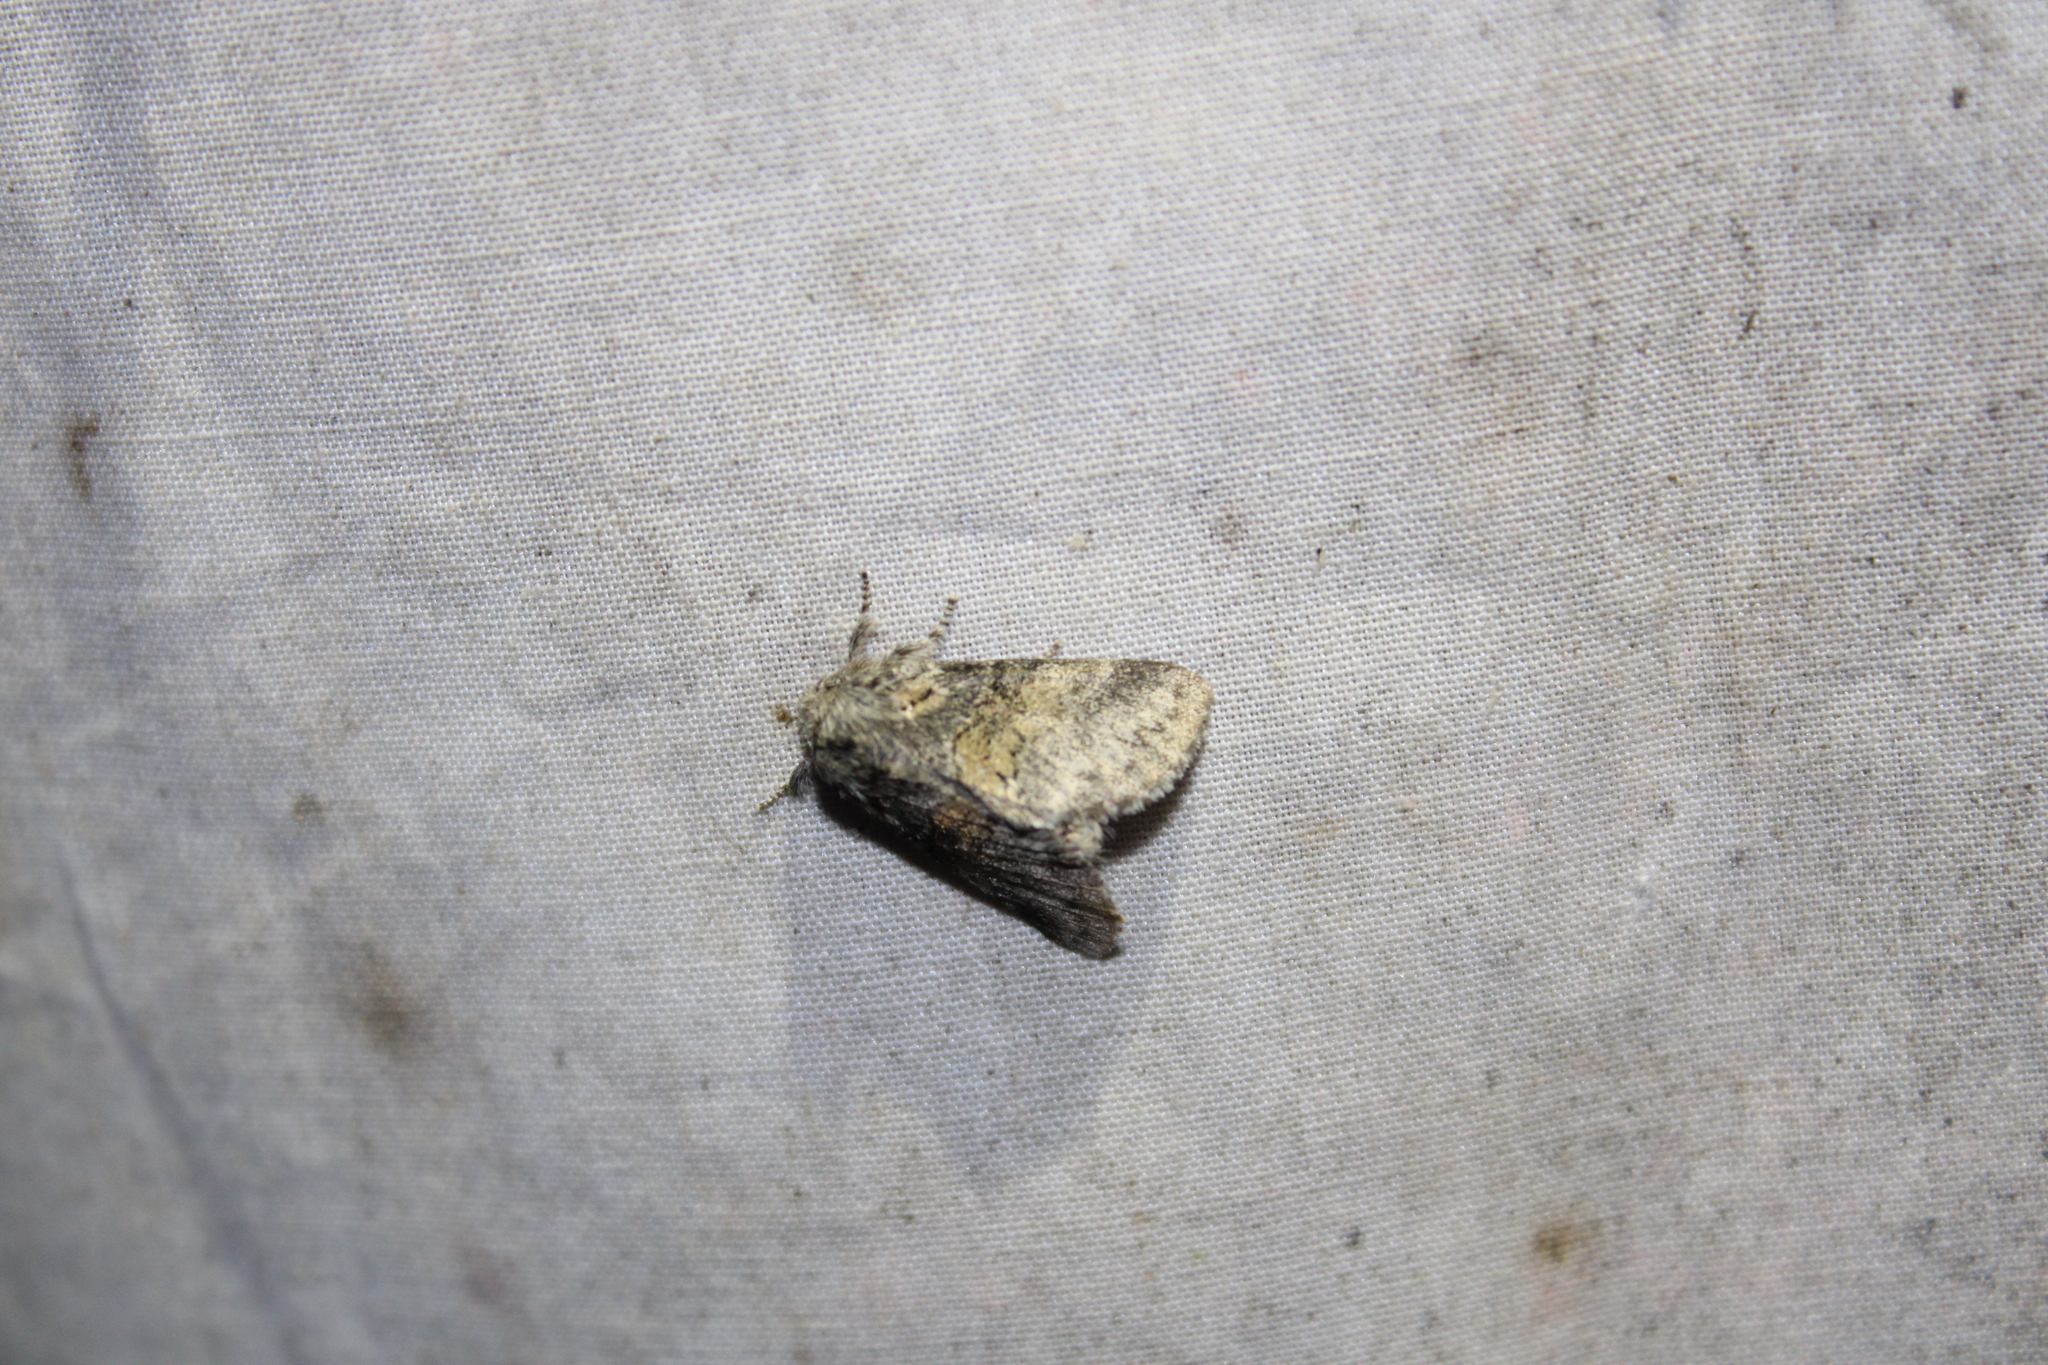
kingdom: Animalia
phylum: Arthropoda
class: Insecta
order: Lepidoptera
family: Notodontidae
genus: Gluphisia
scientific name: Gluphisia septentrionis
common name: Common gluphisia
